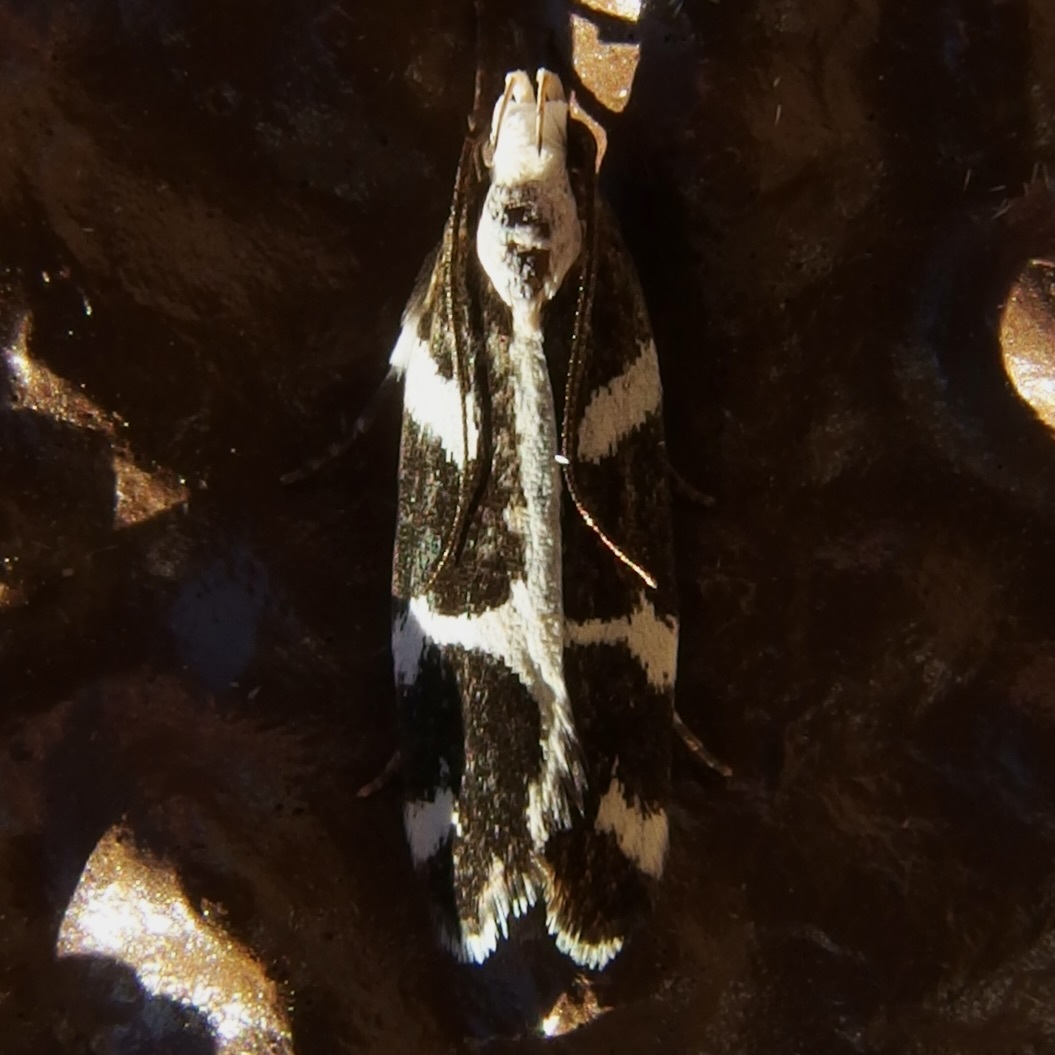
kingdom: Animalia
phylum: Arthropoda
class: Insecta
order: Lepidoptera
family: Gelechiidae
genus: Epilechia
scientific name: Epilechia catalinella
